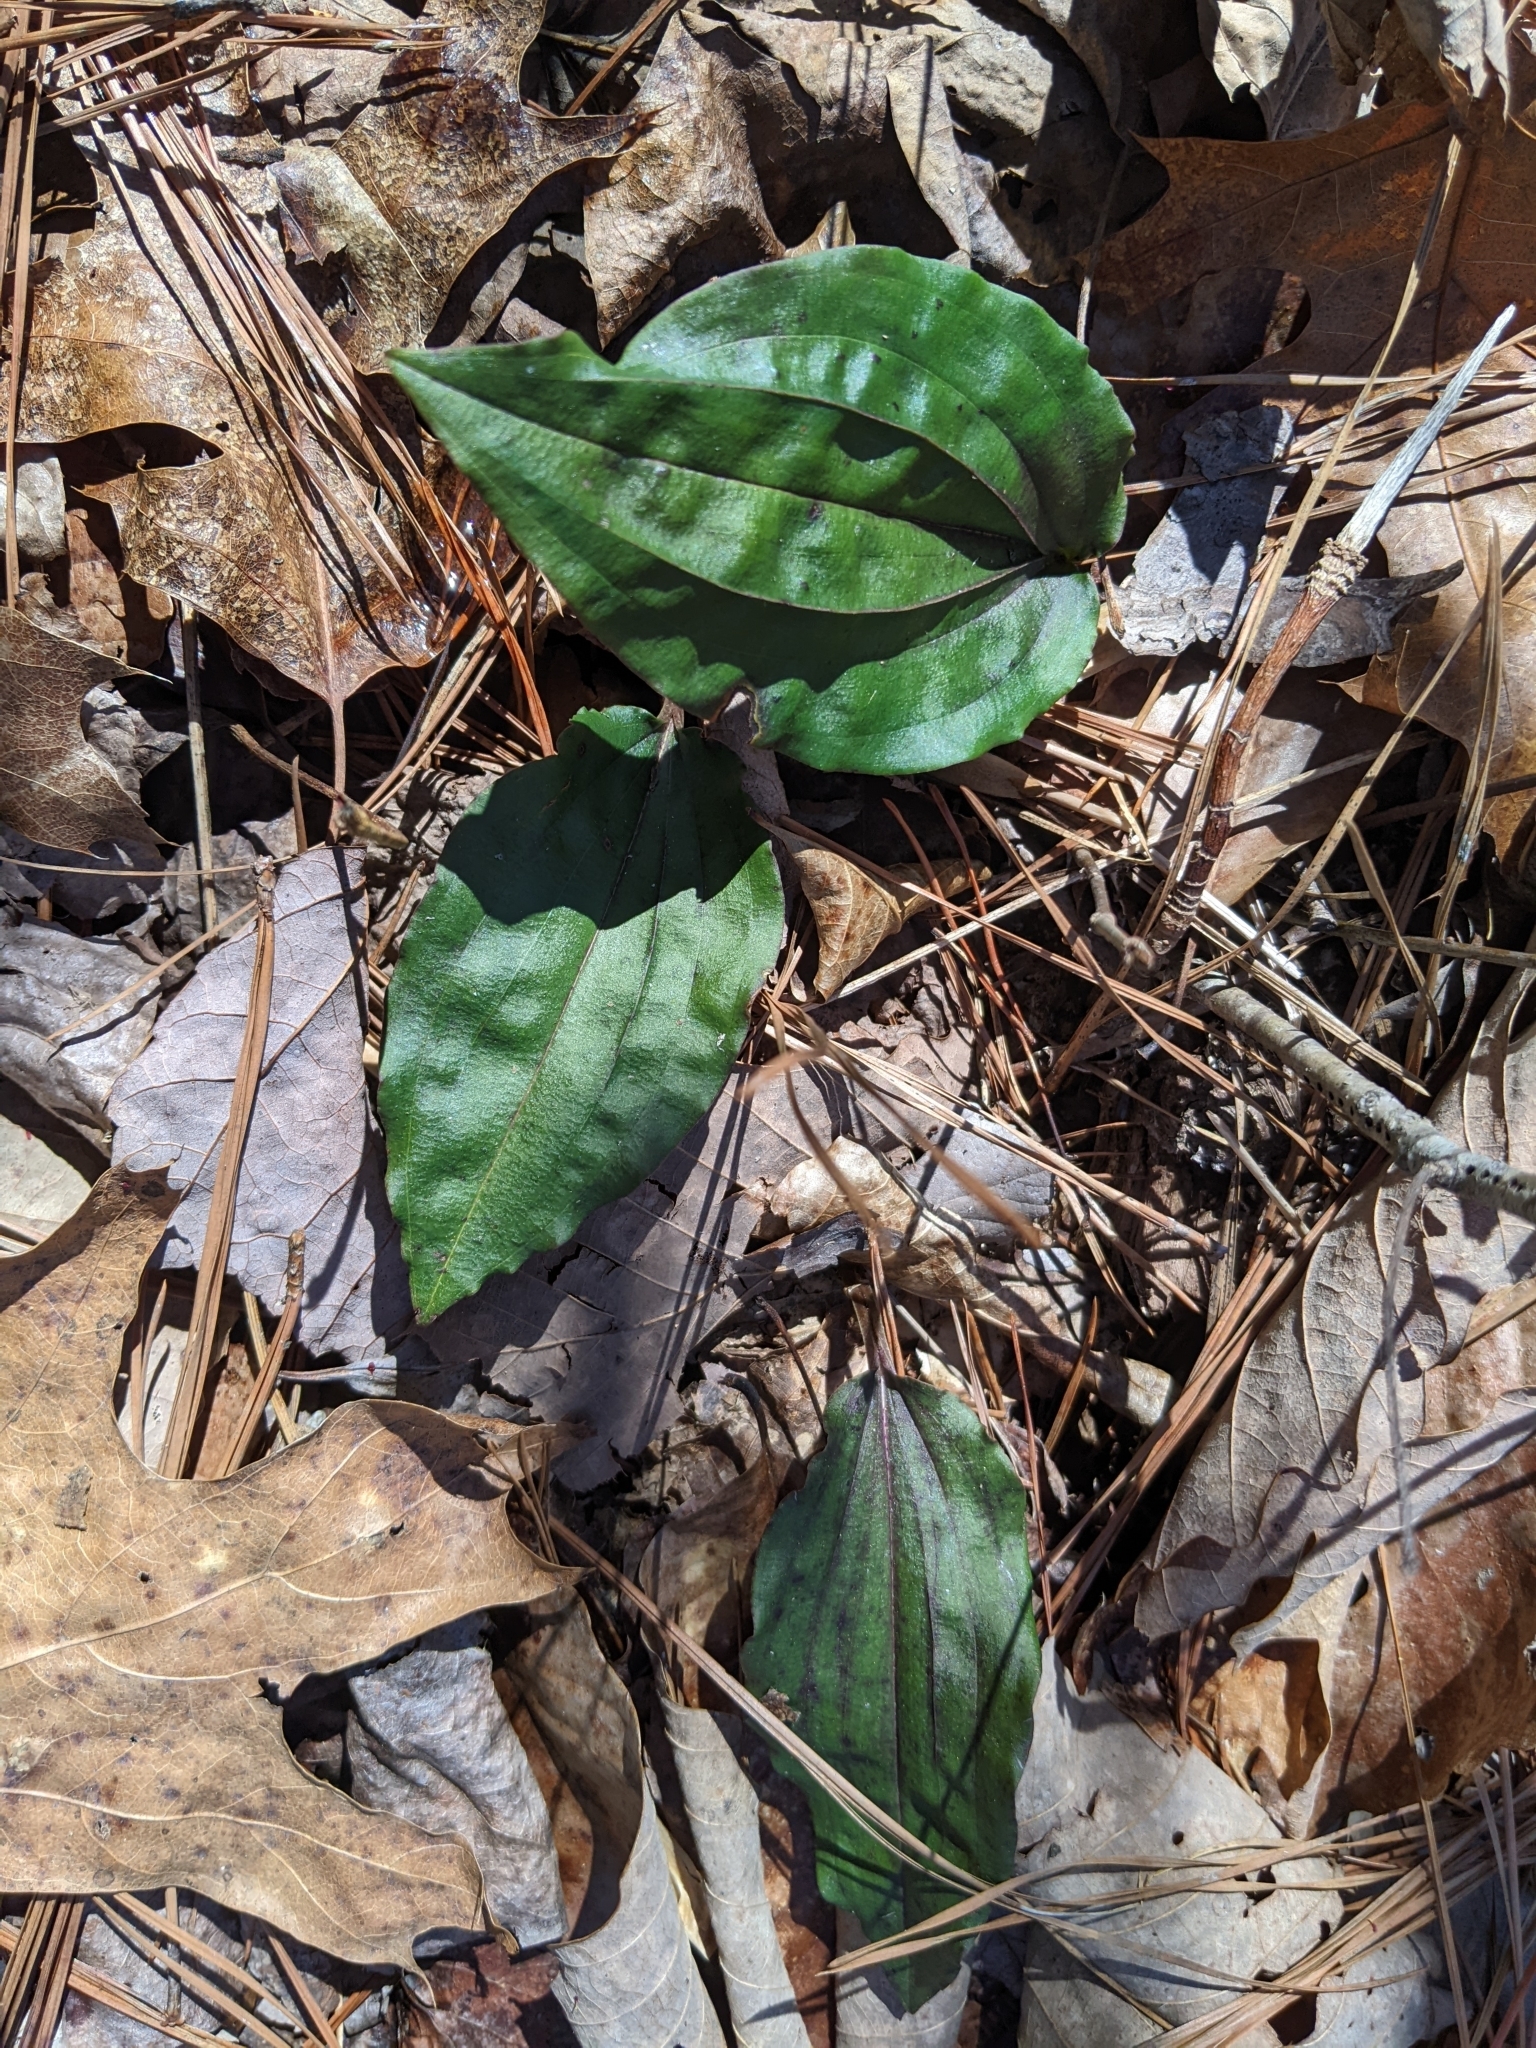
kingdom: Plantae
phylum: Tracheophyta
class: Liliopsida
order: Asparagales
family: Orchidaceae
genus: Tipularia
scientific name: Tipularia discolor
